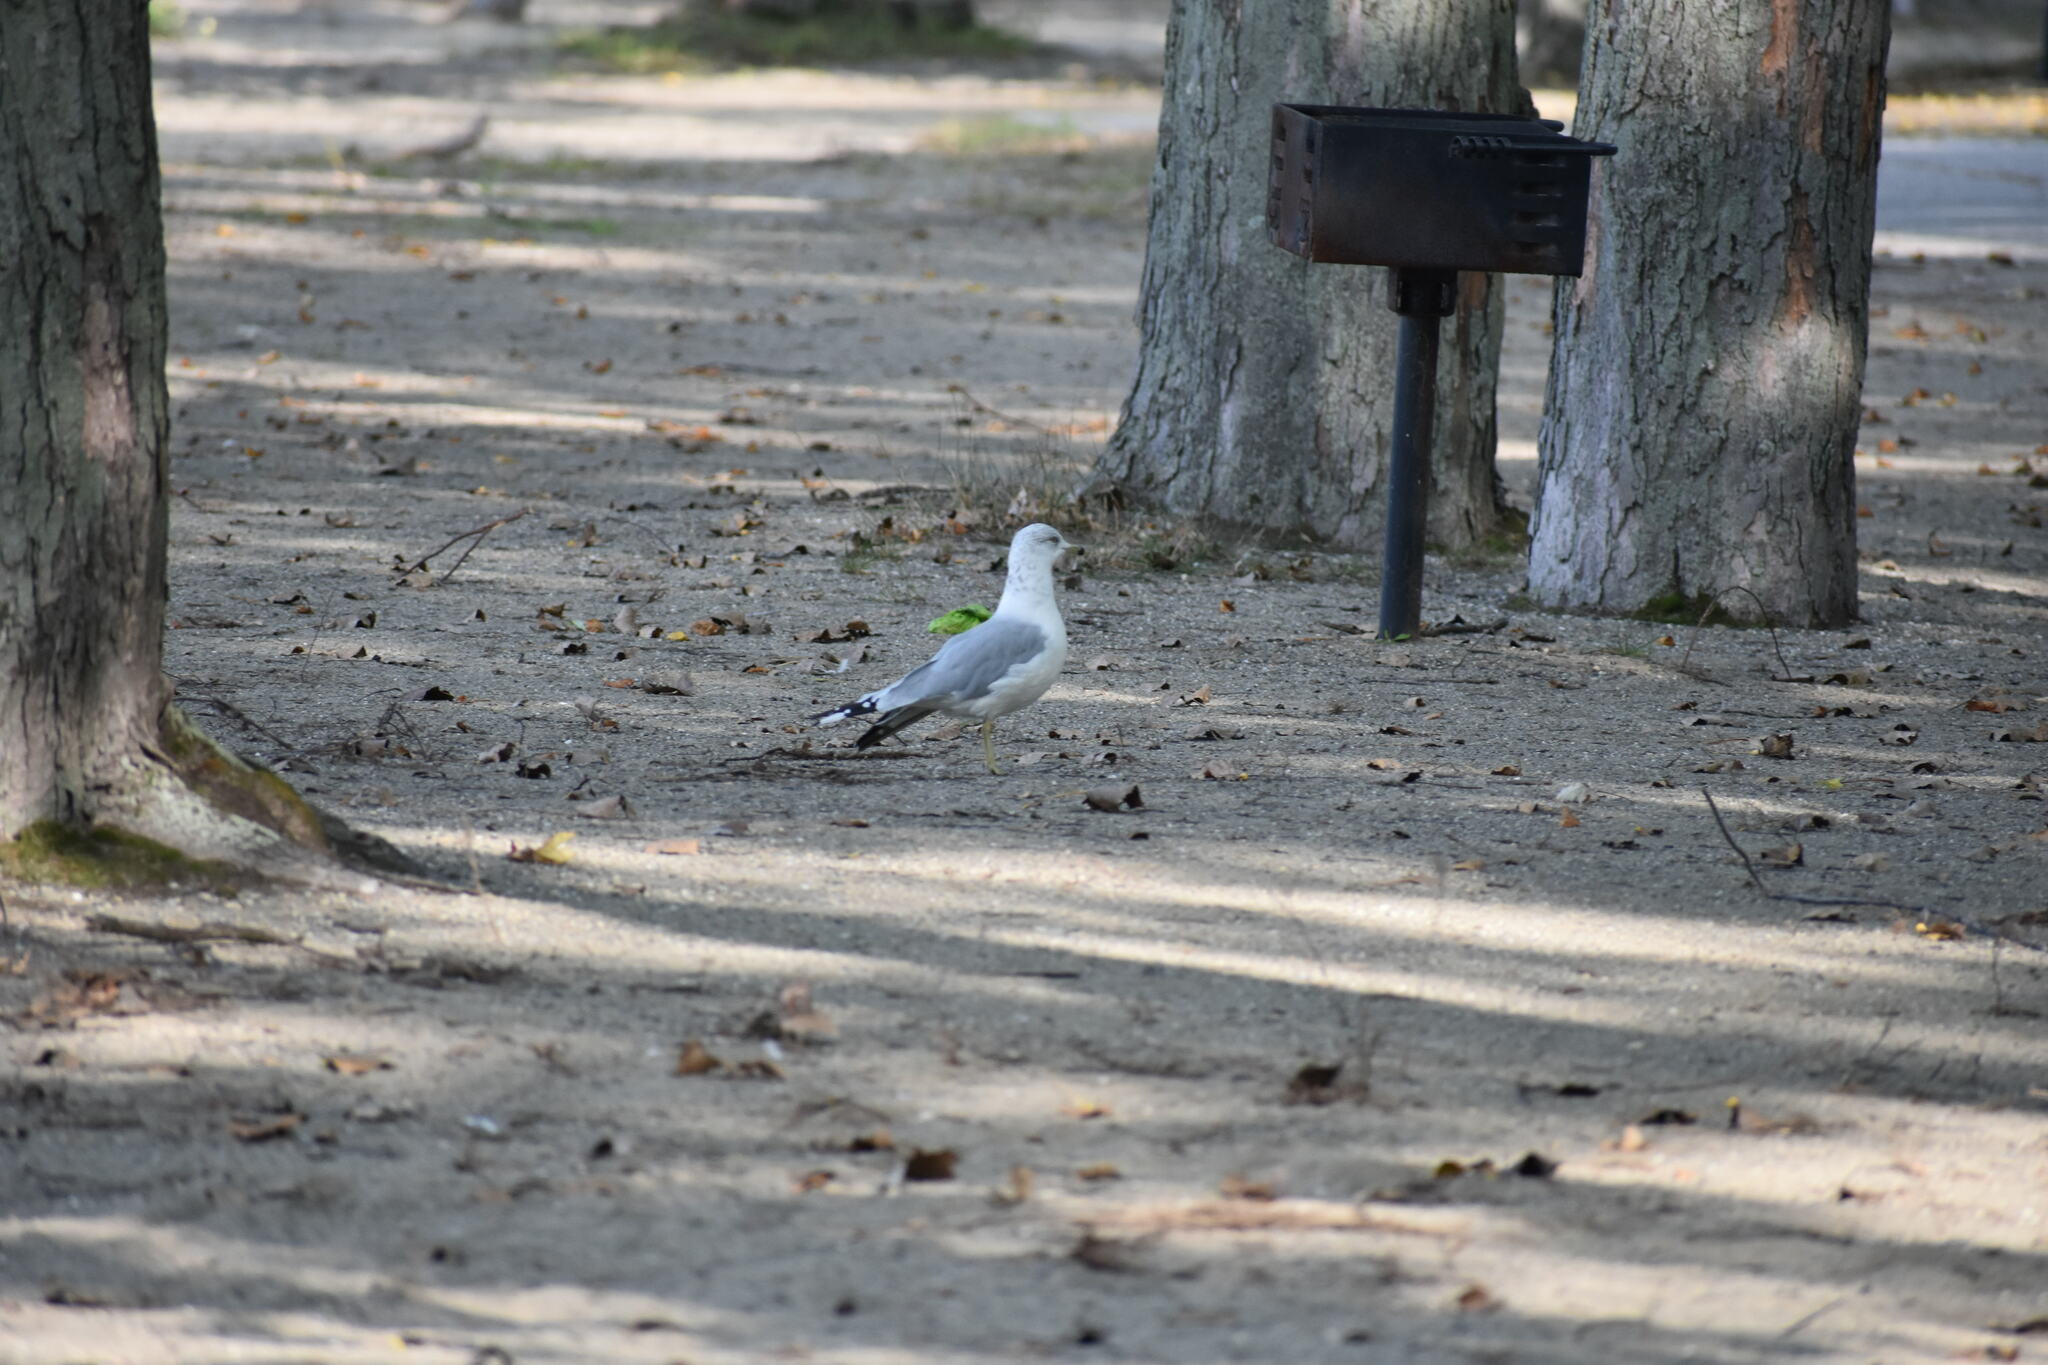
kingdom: Animalia
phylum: Chordata
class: Aves
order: Charadriiformes
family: Laridae
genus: Larus
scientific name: Larus delawarensis
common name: Ring-billed gull
